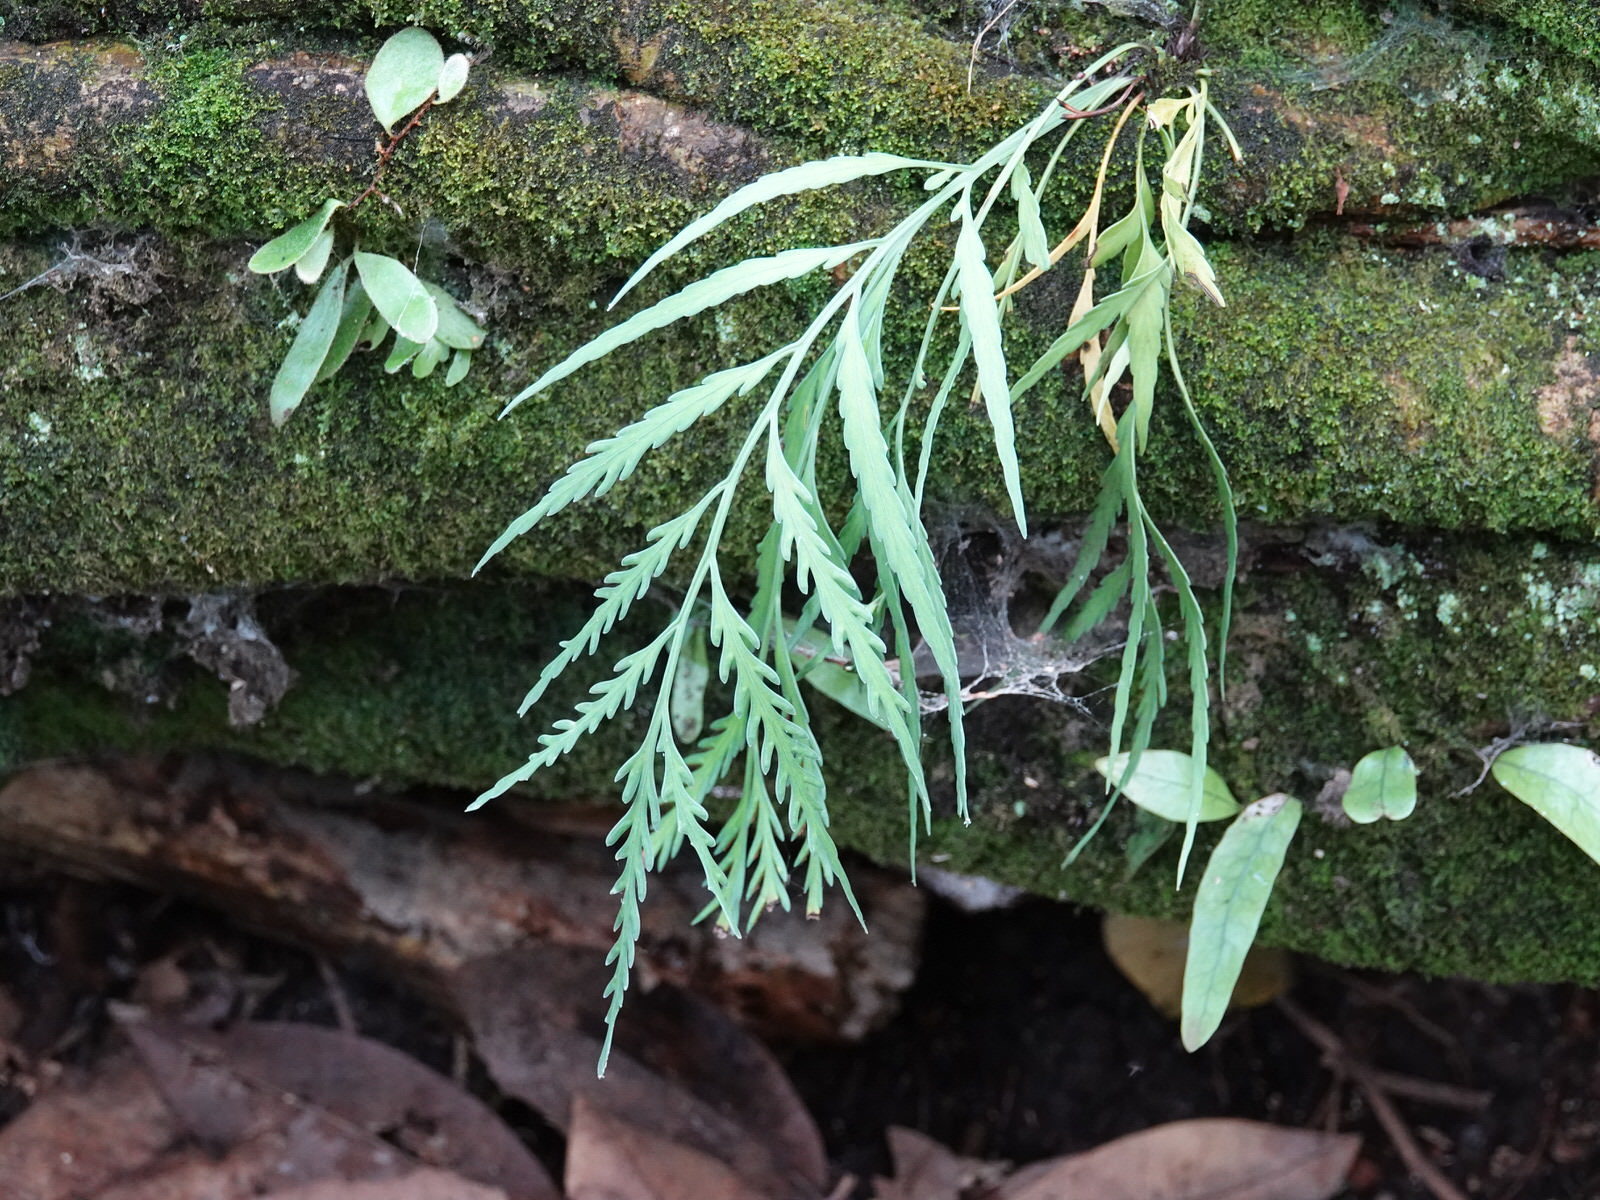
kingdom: Plantae
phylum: Tracheophyta
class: Polypodiopsida
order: Polypodiales
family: Aspleniaceae
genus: Asplenium
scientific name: Asplenium flaccidum
